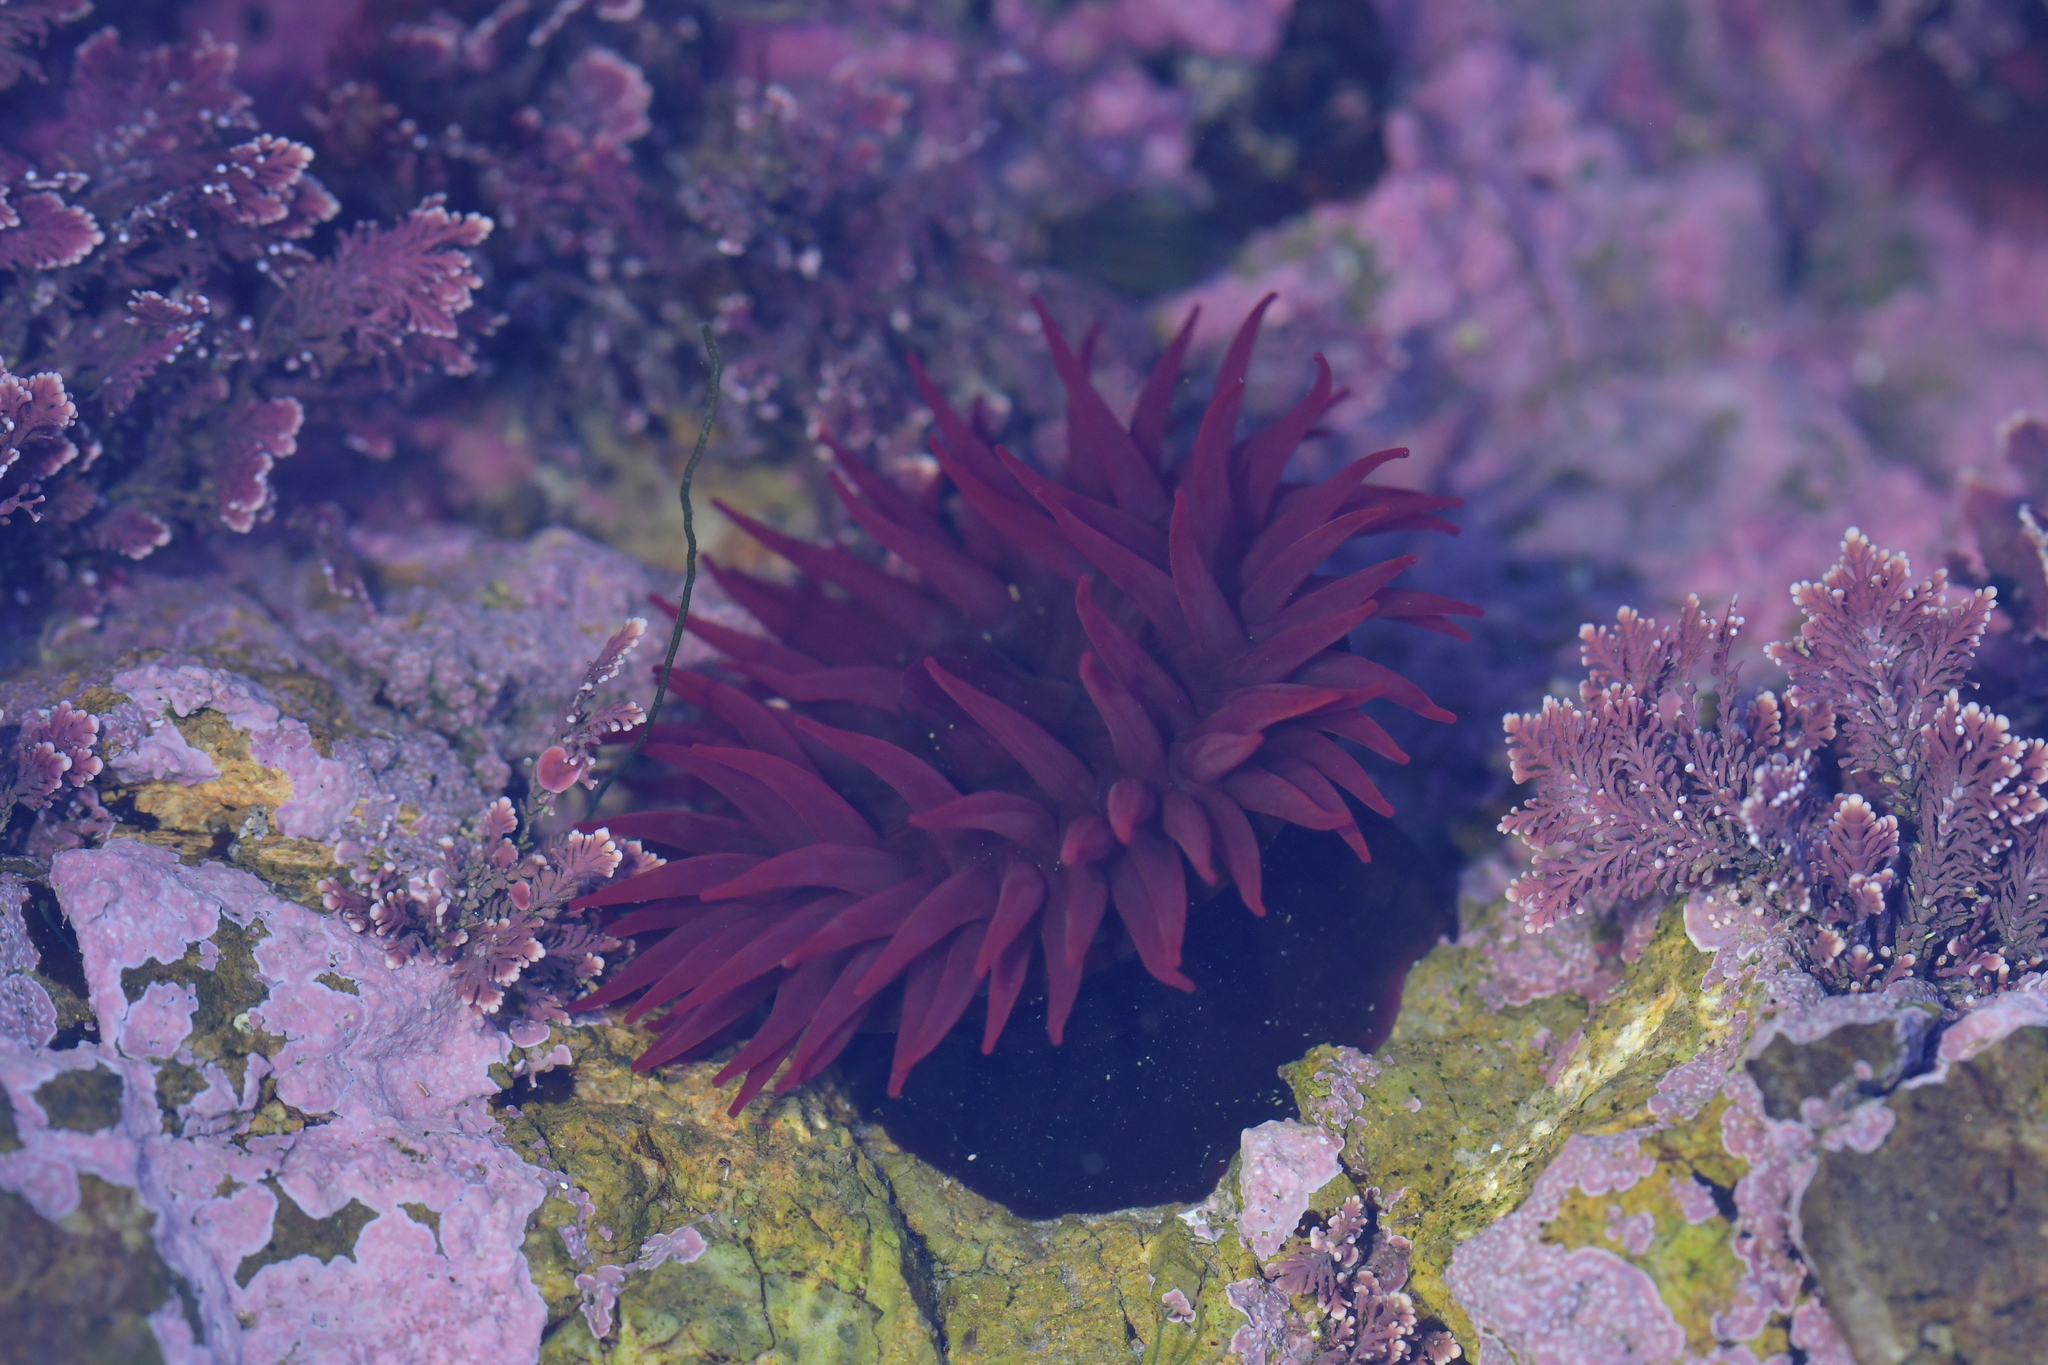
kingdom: Animalia
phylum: Cnidaria
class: Anthozoa
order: Actiniaria
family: Actiniidae
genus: Actinia
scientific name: Actinia tenebrosa
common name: Waratah anemone
